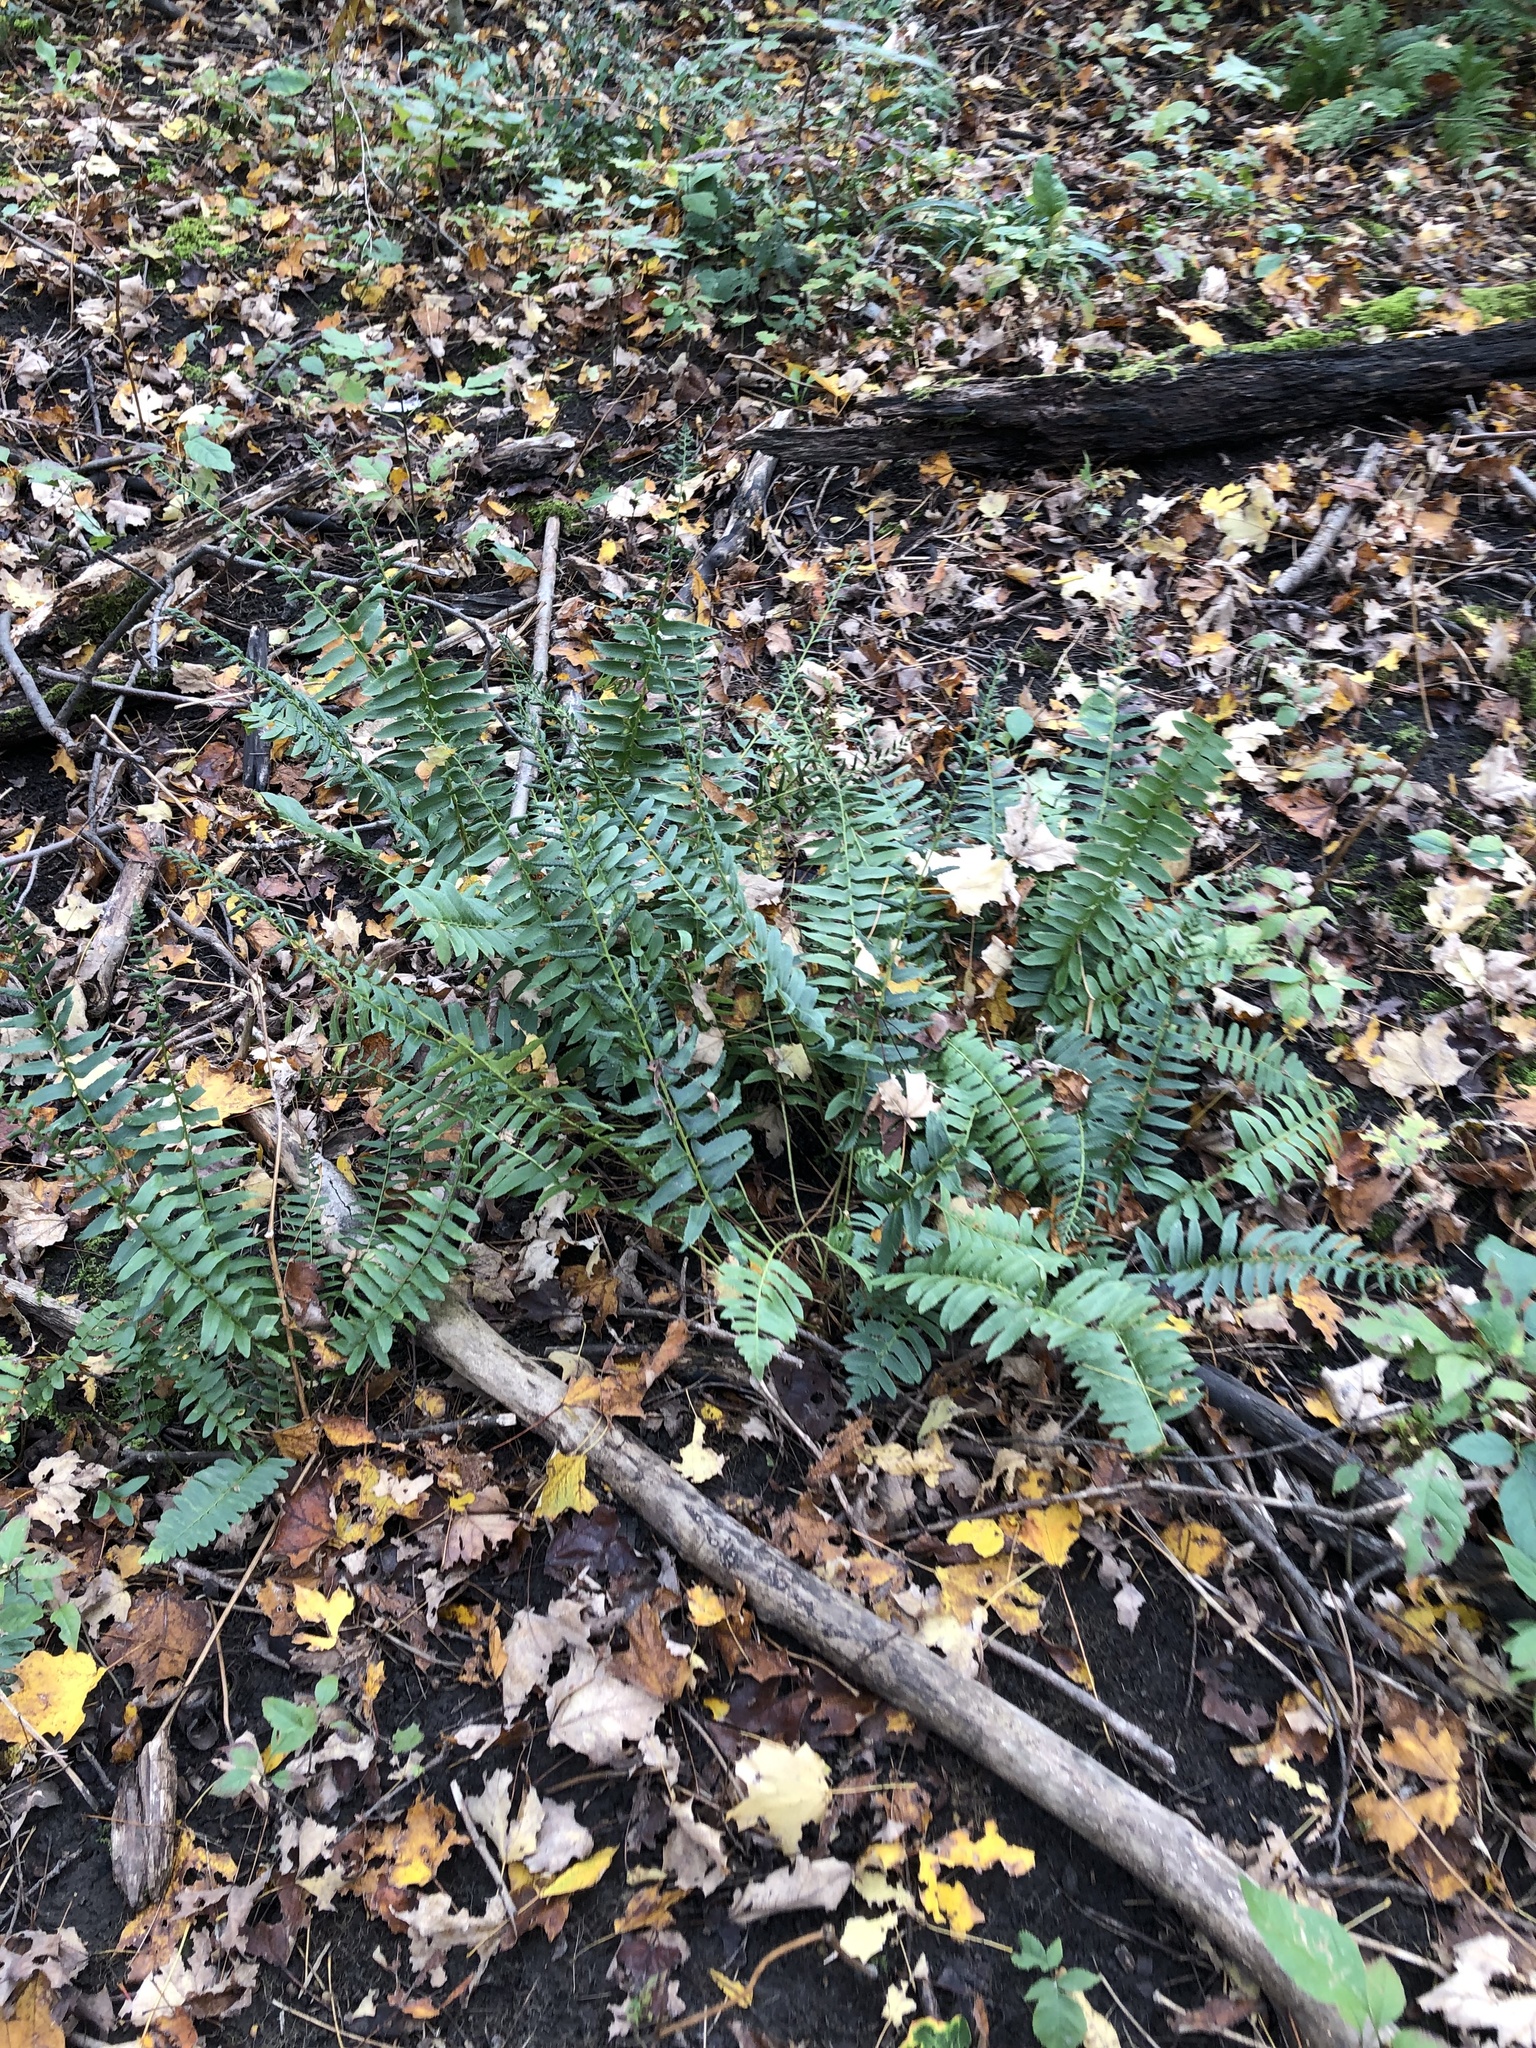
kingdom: Plantae
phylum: Tracheophyta
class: Polypodiopsida
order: Polypodiales
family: Dryopteridaceae
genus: Polystichum
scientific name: Polystichum acrostichoides
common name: Christmas fern
